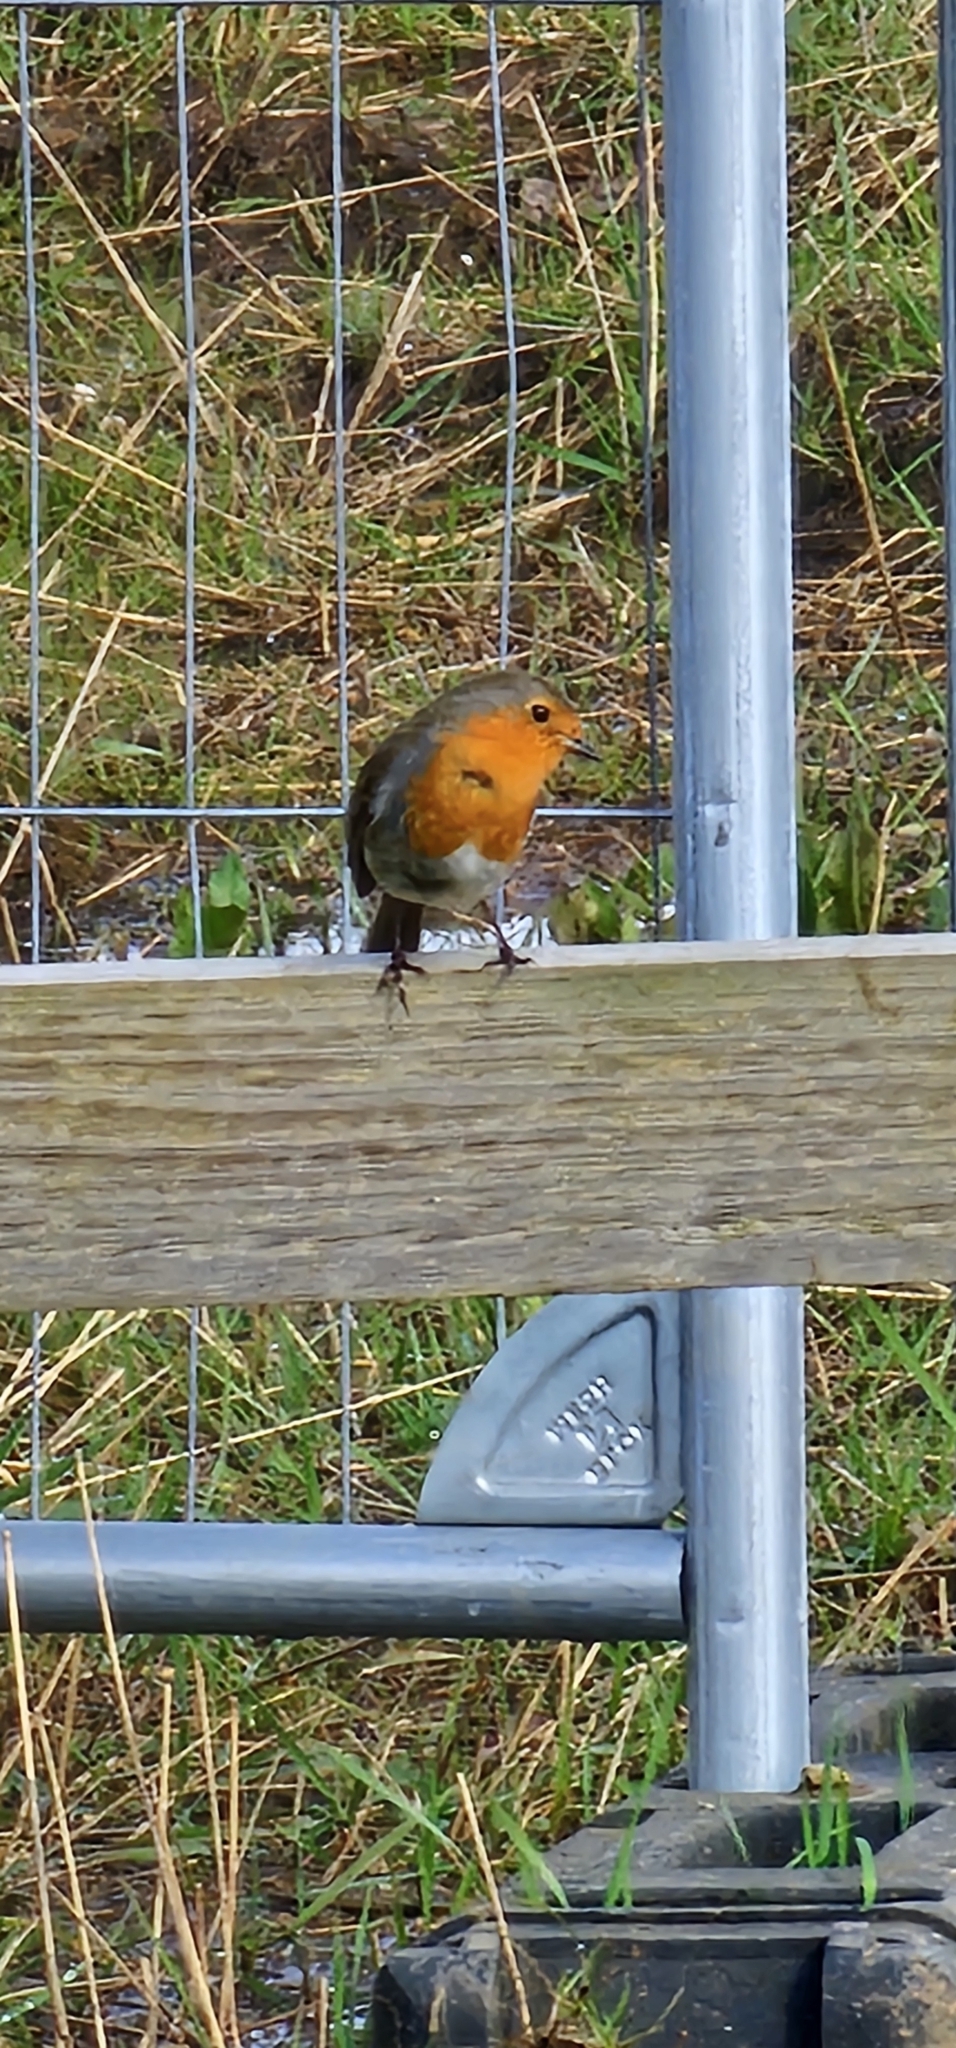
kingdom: Animalia
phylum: Chordata
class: Aves
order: Passeriformes
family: Muscicapidae
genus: Erithacus
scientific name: Erithacus rubecula
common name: European robin
